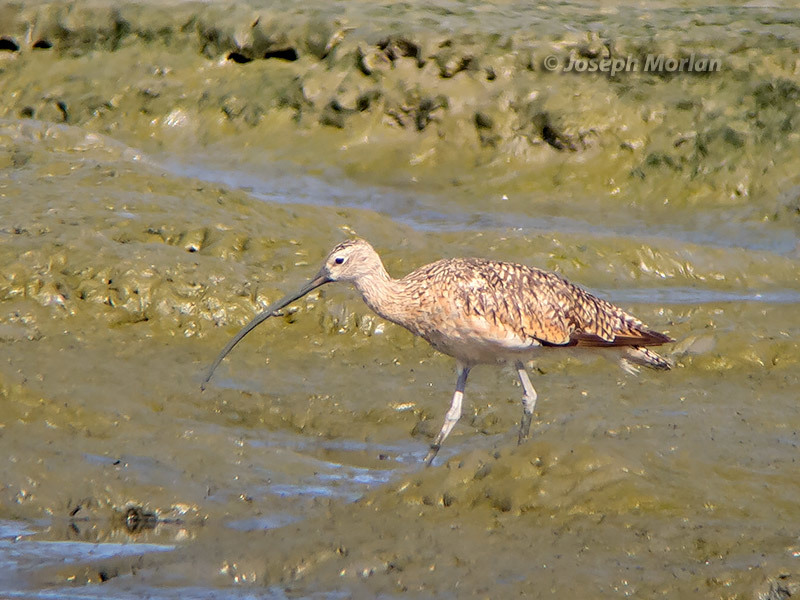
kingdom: Animalia
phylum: Chordata
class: Aves
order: Charadriiformes
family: Scolopacidae
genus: Numenius
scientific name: Numenius americanus
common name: Long-billed curlew
